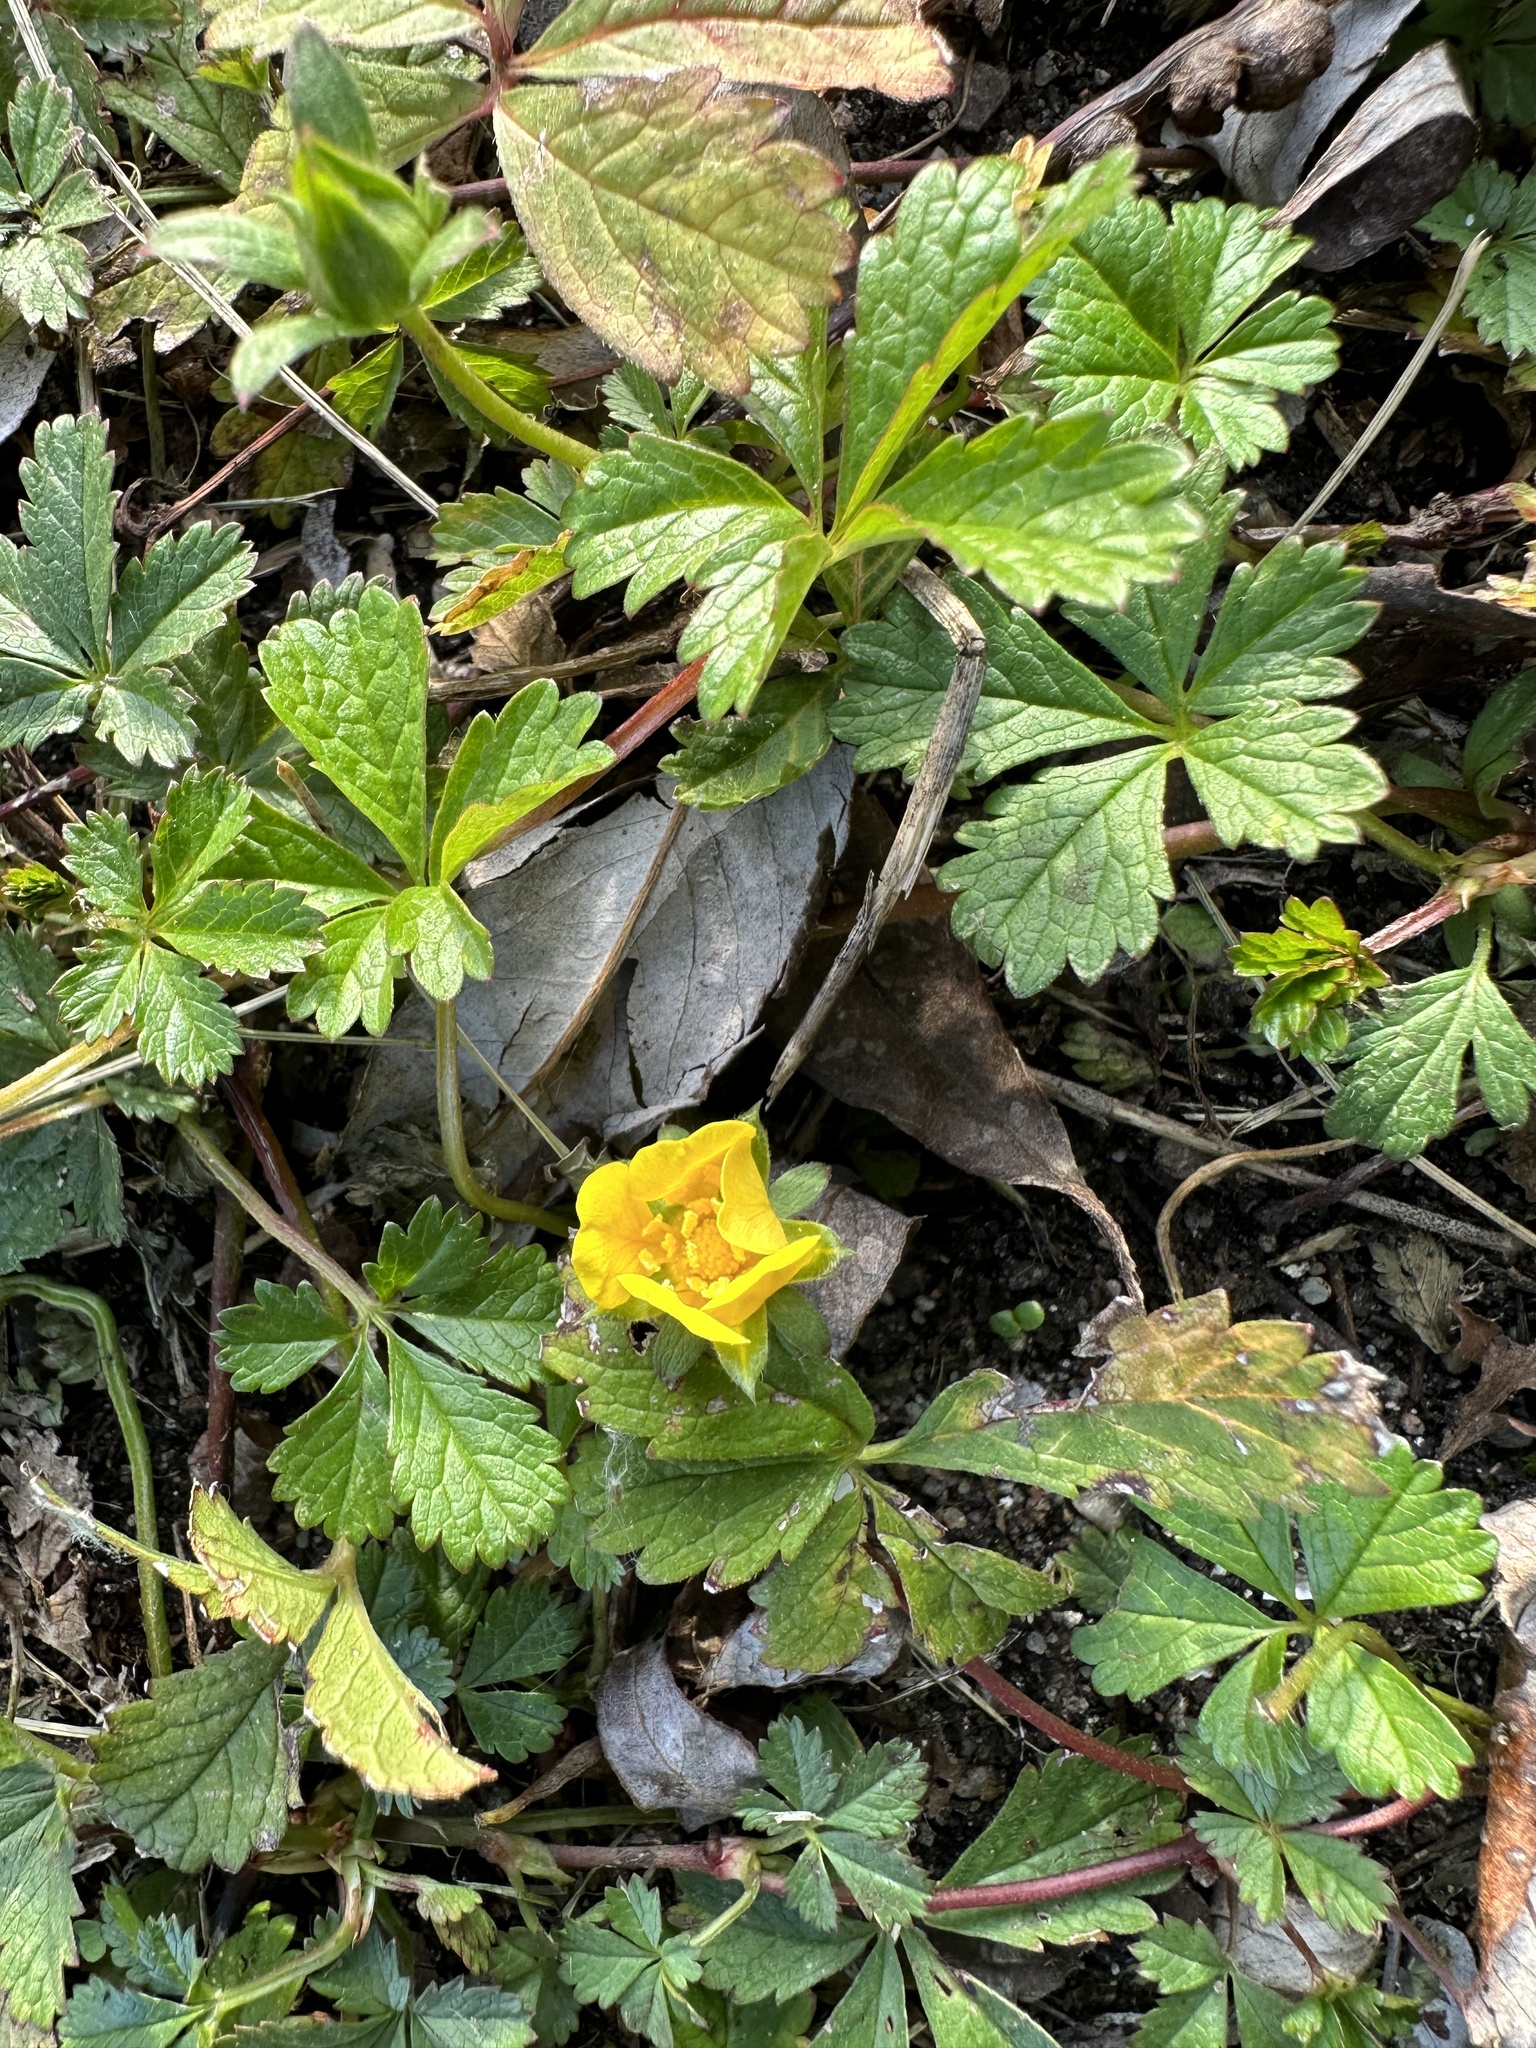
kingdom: Plantae
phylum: Tracheophyta
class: Magnoliopsida
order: Rosales
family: Rosaceae
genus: Potentilla
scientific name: Potentilla reptans
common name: Creeping cinquefoil
